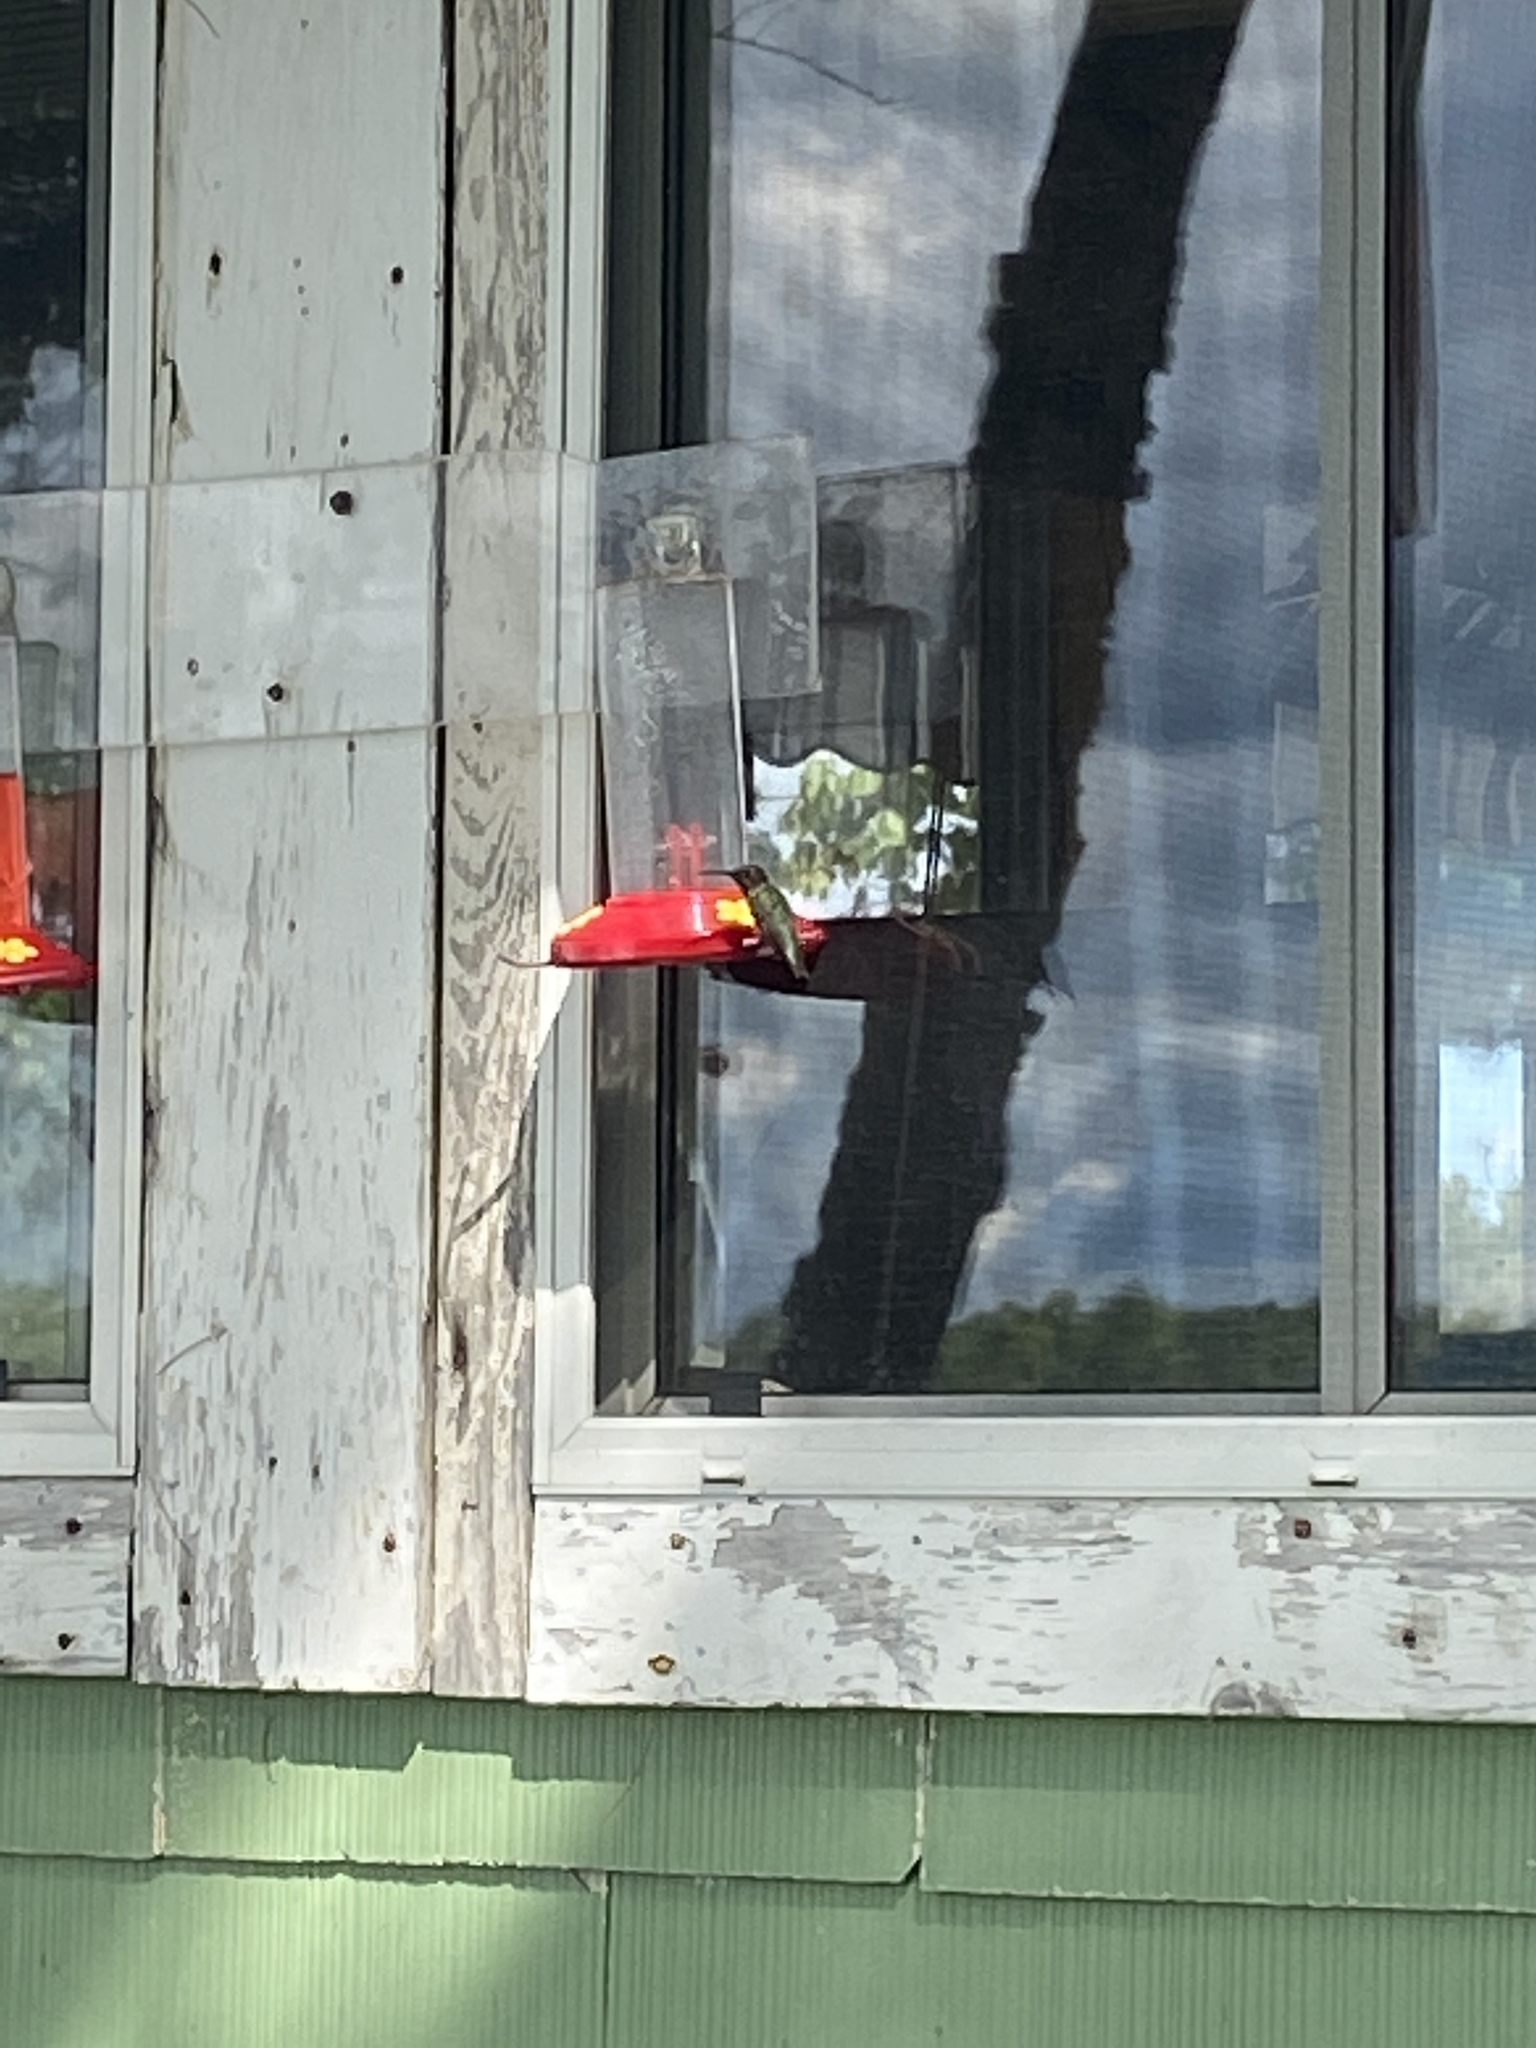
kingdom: Animalia
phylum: Chordata
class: Aves
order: Apodiformes
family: Trochilidae
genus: Archilochus
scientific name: Archilochus colubris
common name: Ruby-throated hummingbird
